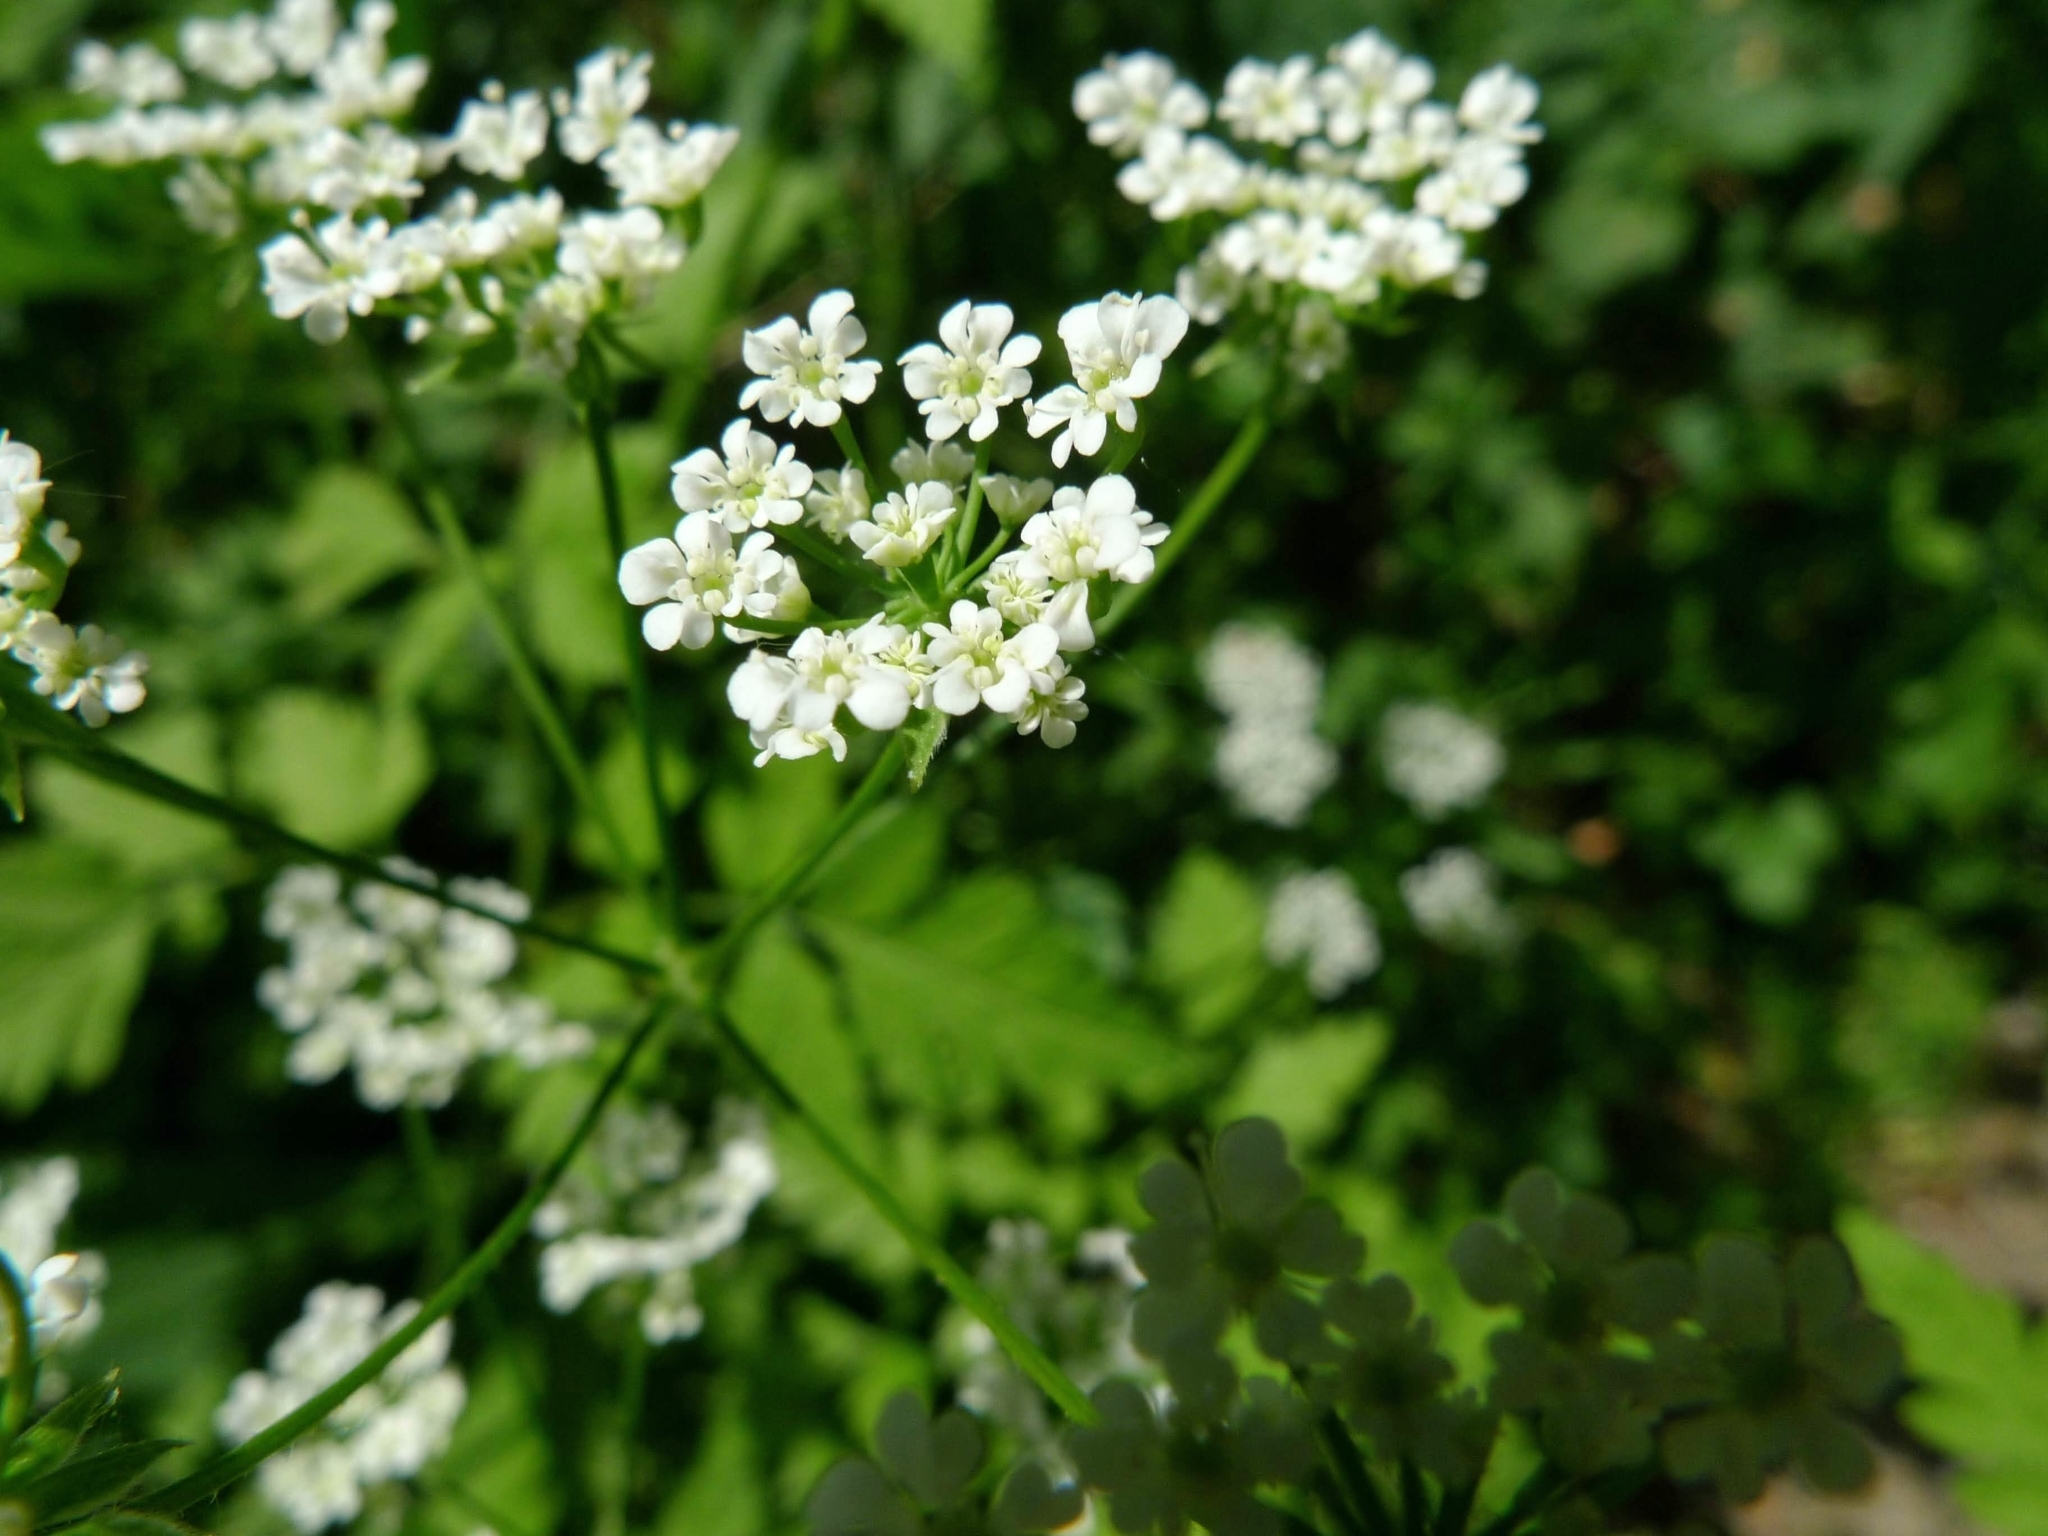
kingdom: Plantae
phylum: Tracheophyta
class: Magnoliopsida
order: Apiales
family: Apiaceae
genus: Chaerophyllum
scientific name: Chaerophyllum temulum
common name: Rough chervil
